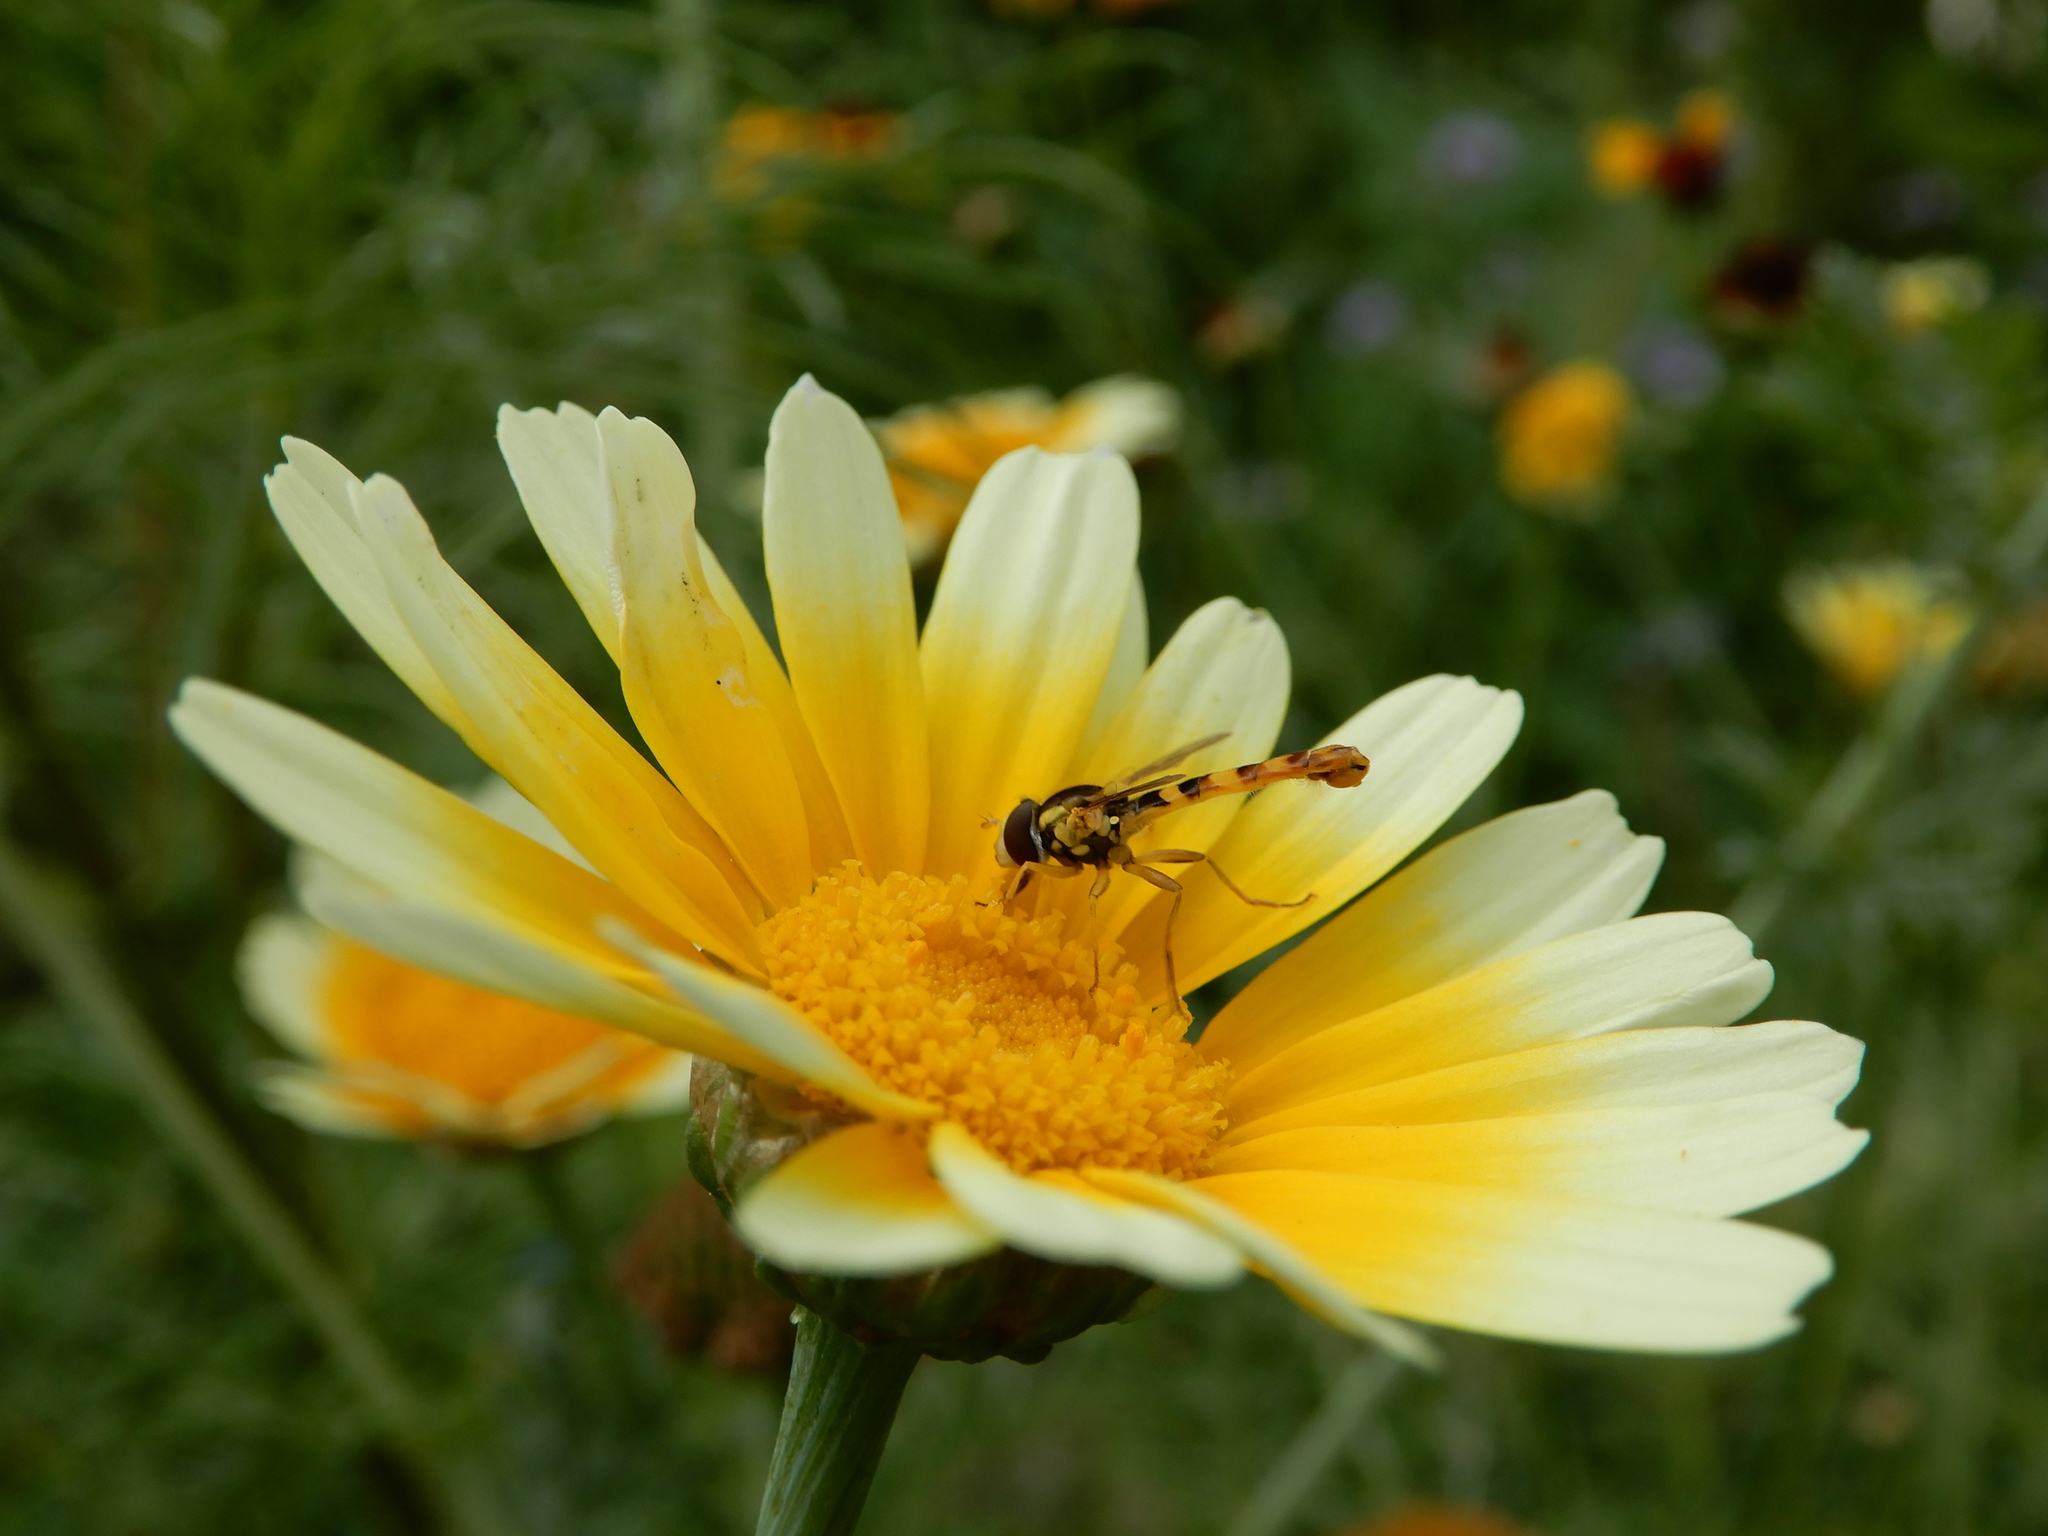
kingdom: Animalia
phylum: Arthropoda
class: Insecta
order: Diptera
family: Syrphidae
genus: Sphaerophoria
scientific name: Sphaerophoria scripta
